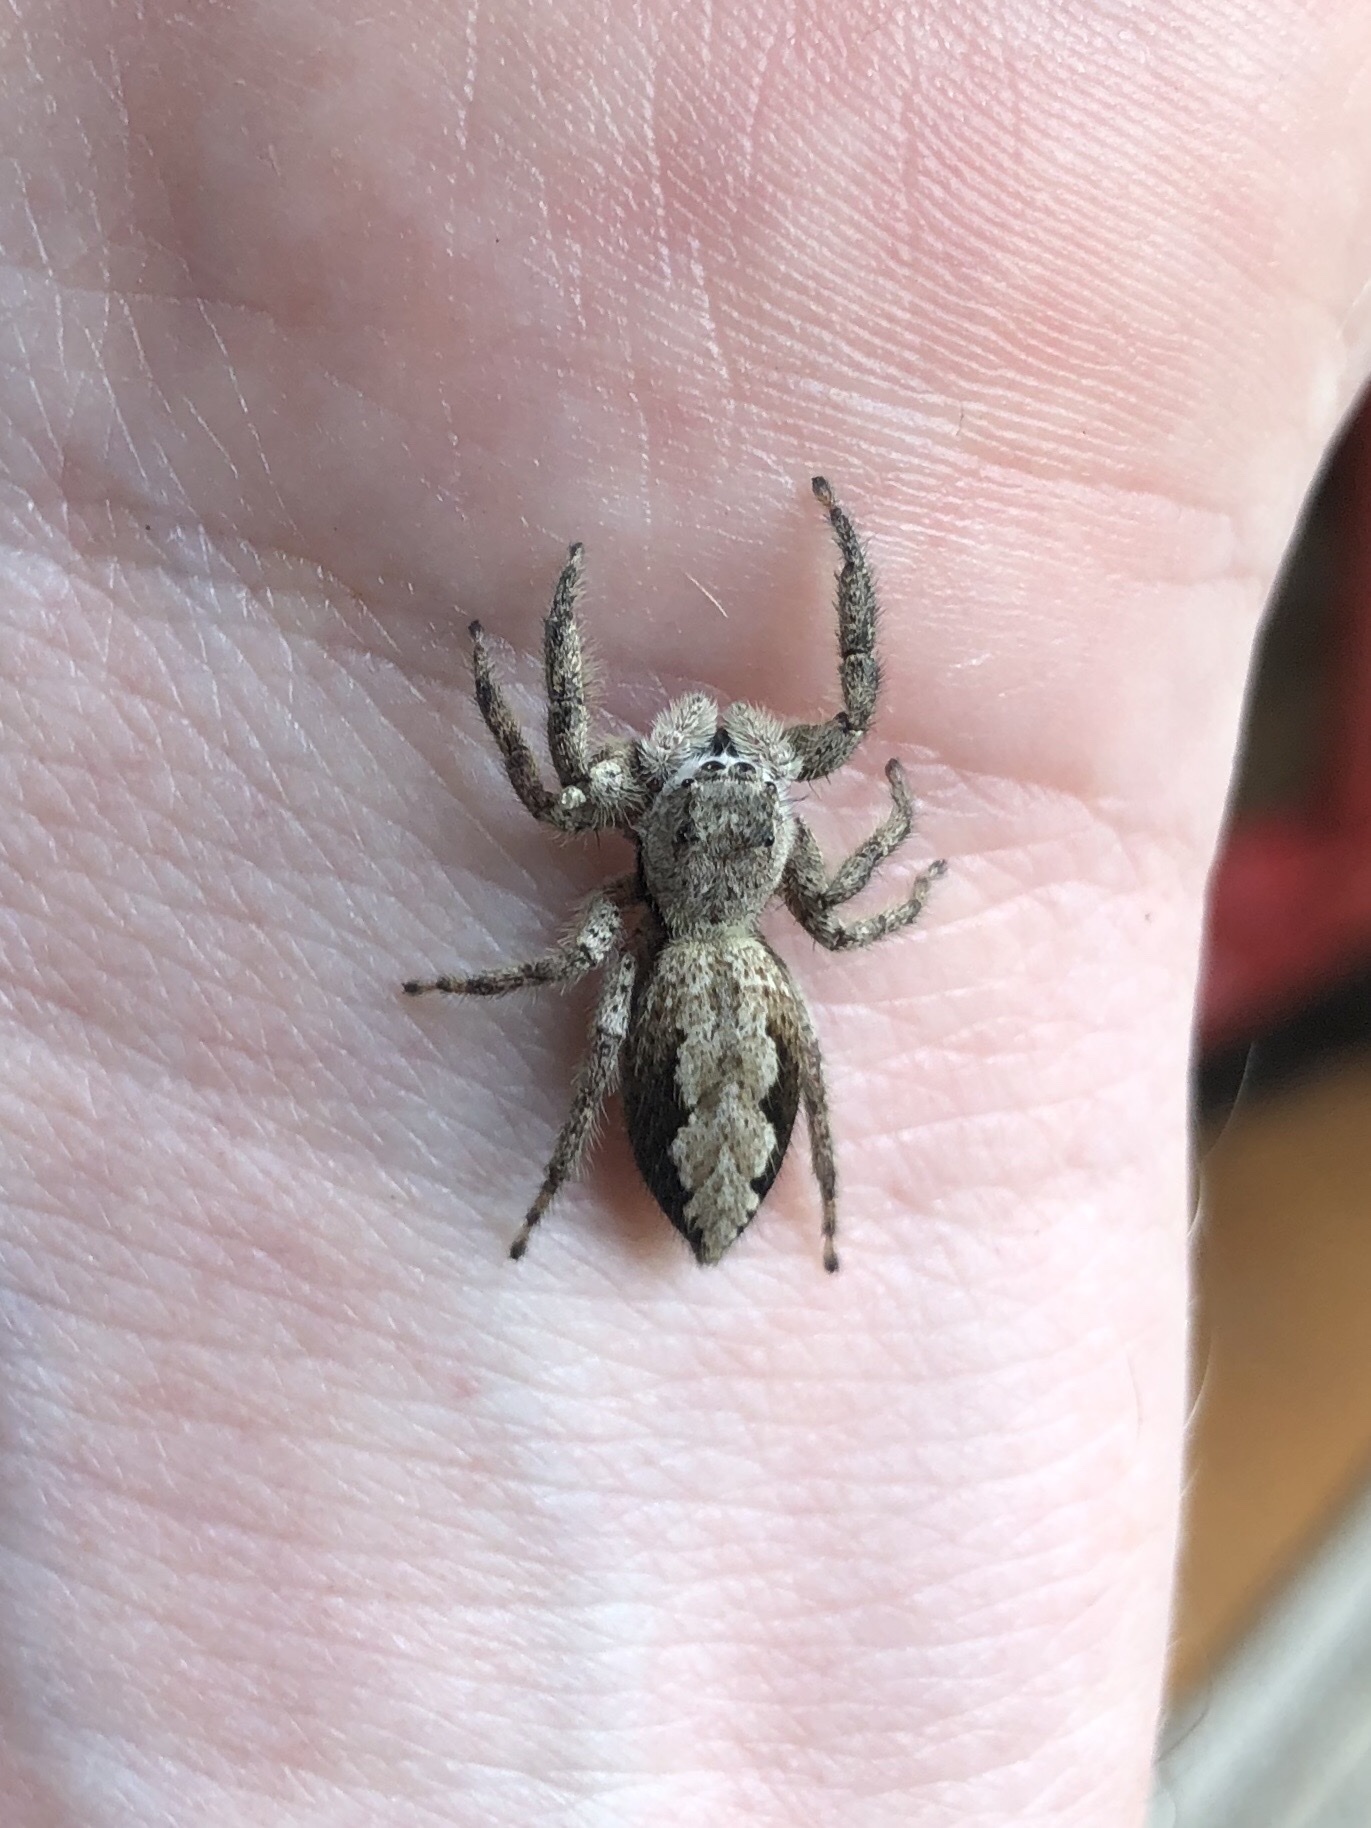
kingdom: Animalia
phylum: Arthropoda
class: Arachnida
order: Araneae
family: Salticidae
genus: Platycryptus
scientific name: Platycryptus undatus
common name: Tan jumping spider
